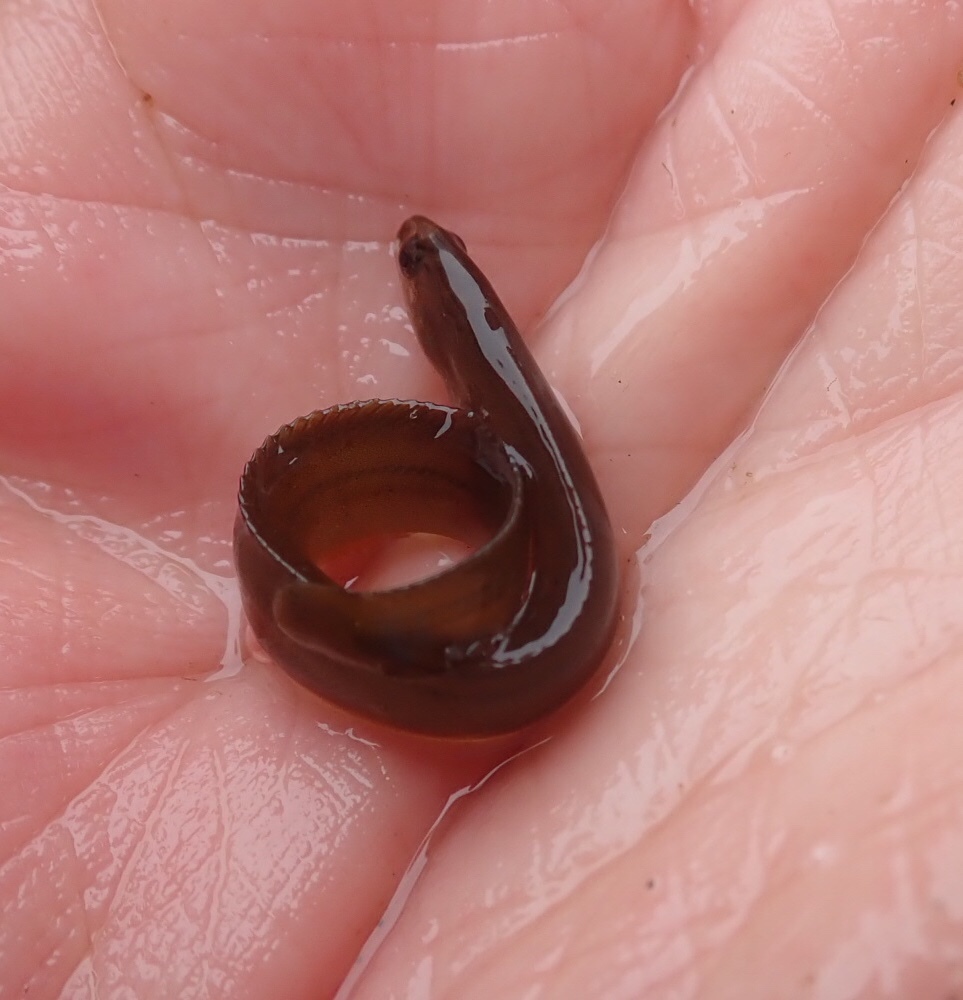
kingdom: Animalia
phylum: Chordata
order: Perciformes
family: Pholidae
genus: Apodichthys
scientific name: Apodichthys flavidus
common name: Penpoint gunnel
